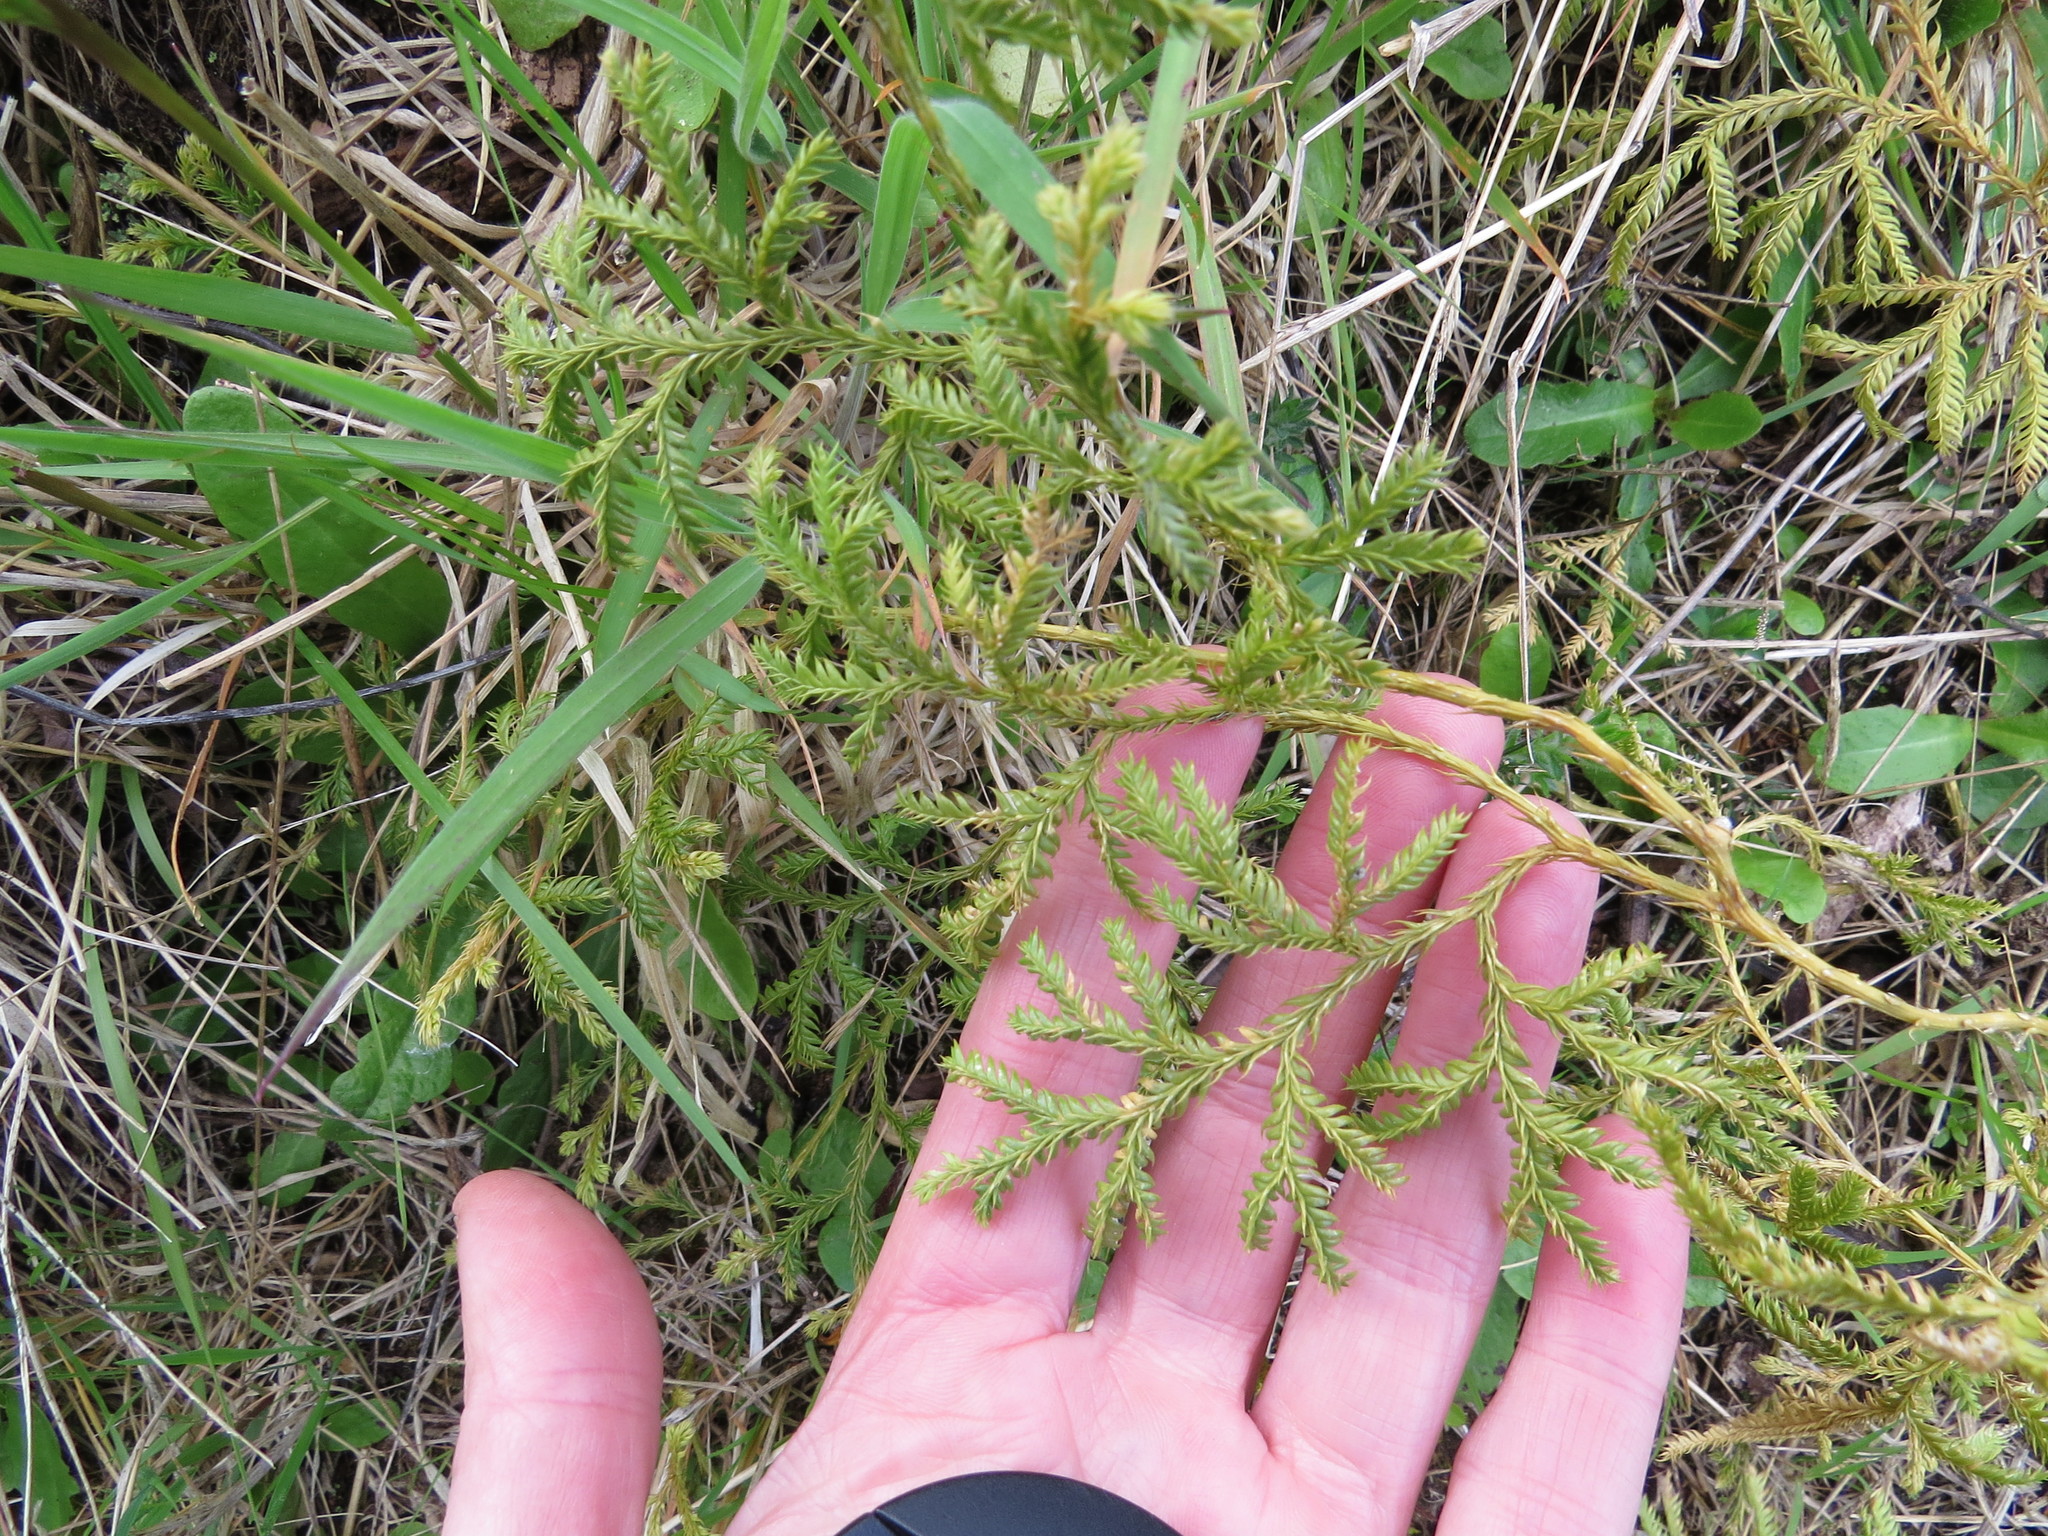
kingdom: Plantae
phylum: Tracheophyta
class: Lycopodiopsida
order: Lycopodiales
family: Lycopodiaceae
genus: Lycopodium
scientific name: Lycopodium volubile
